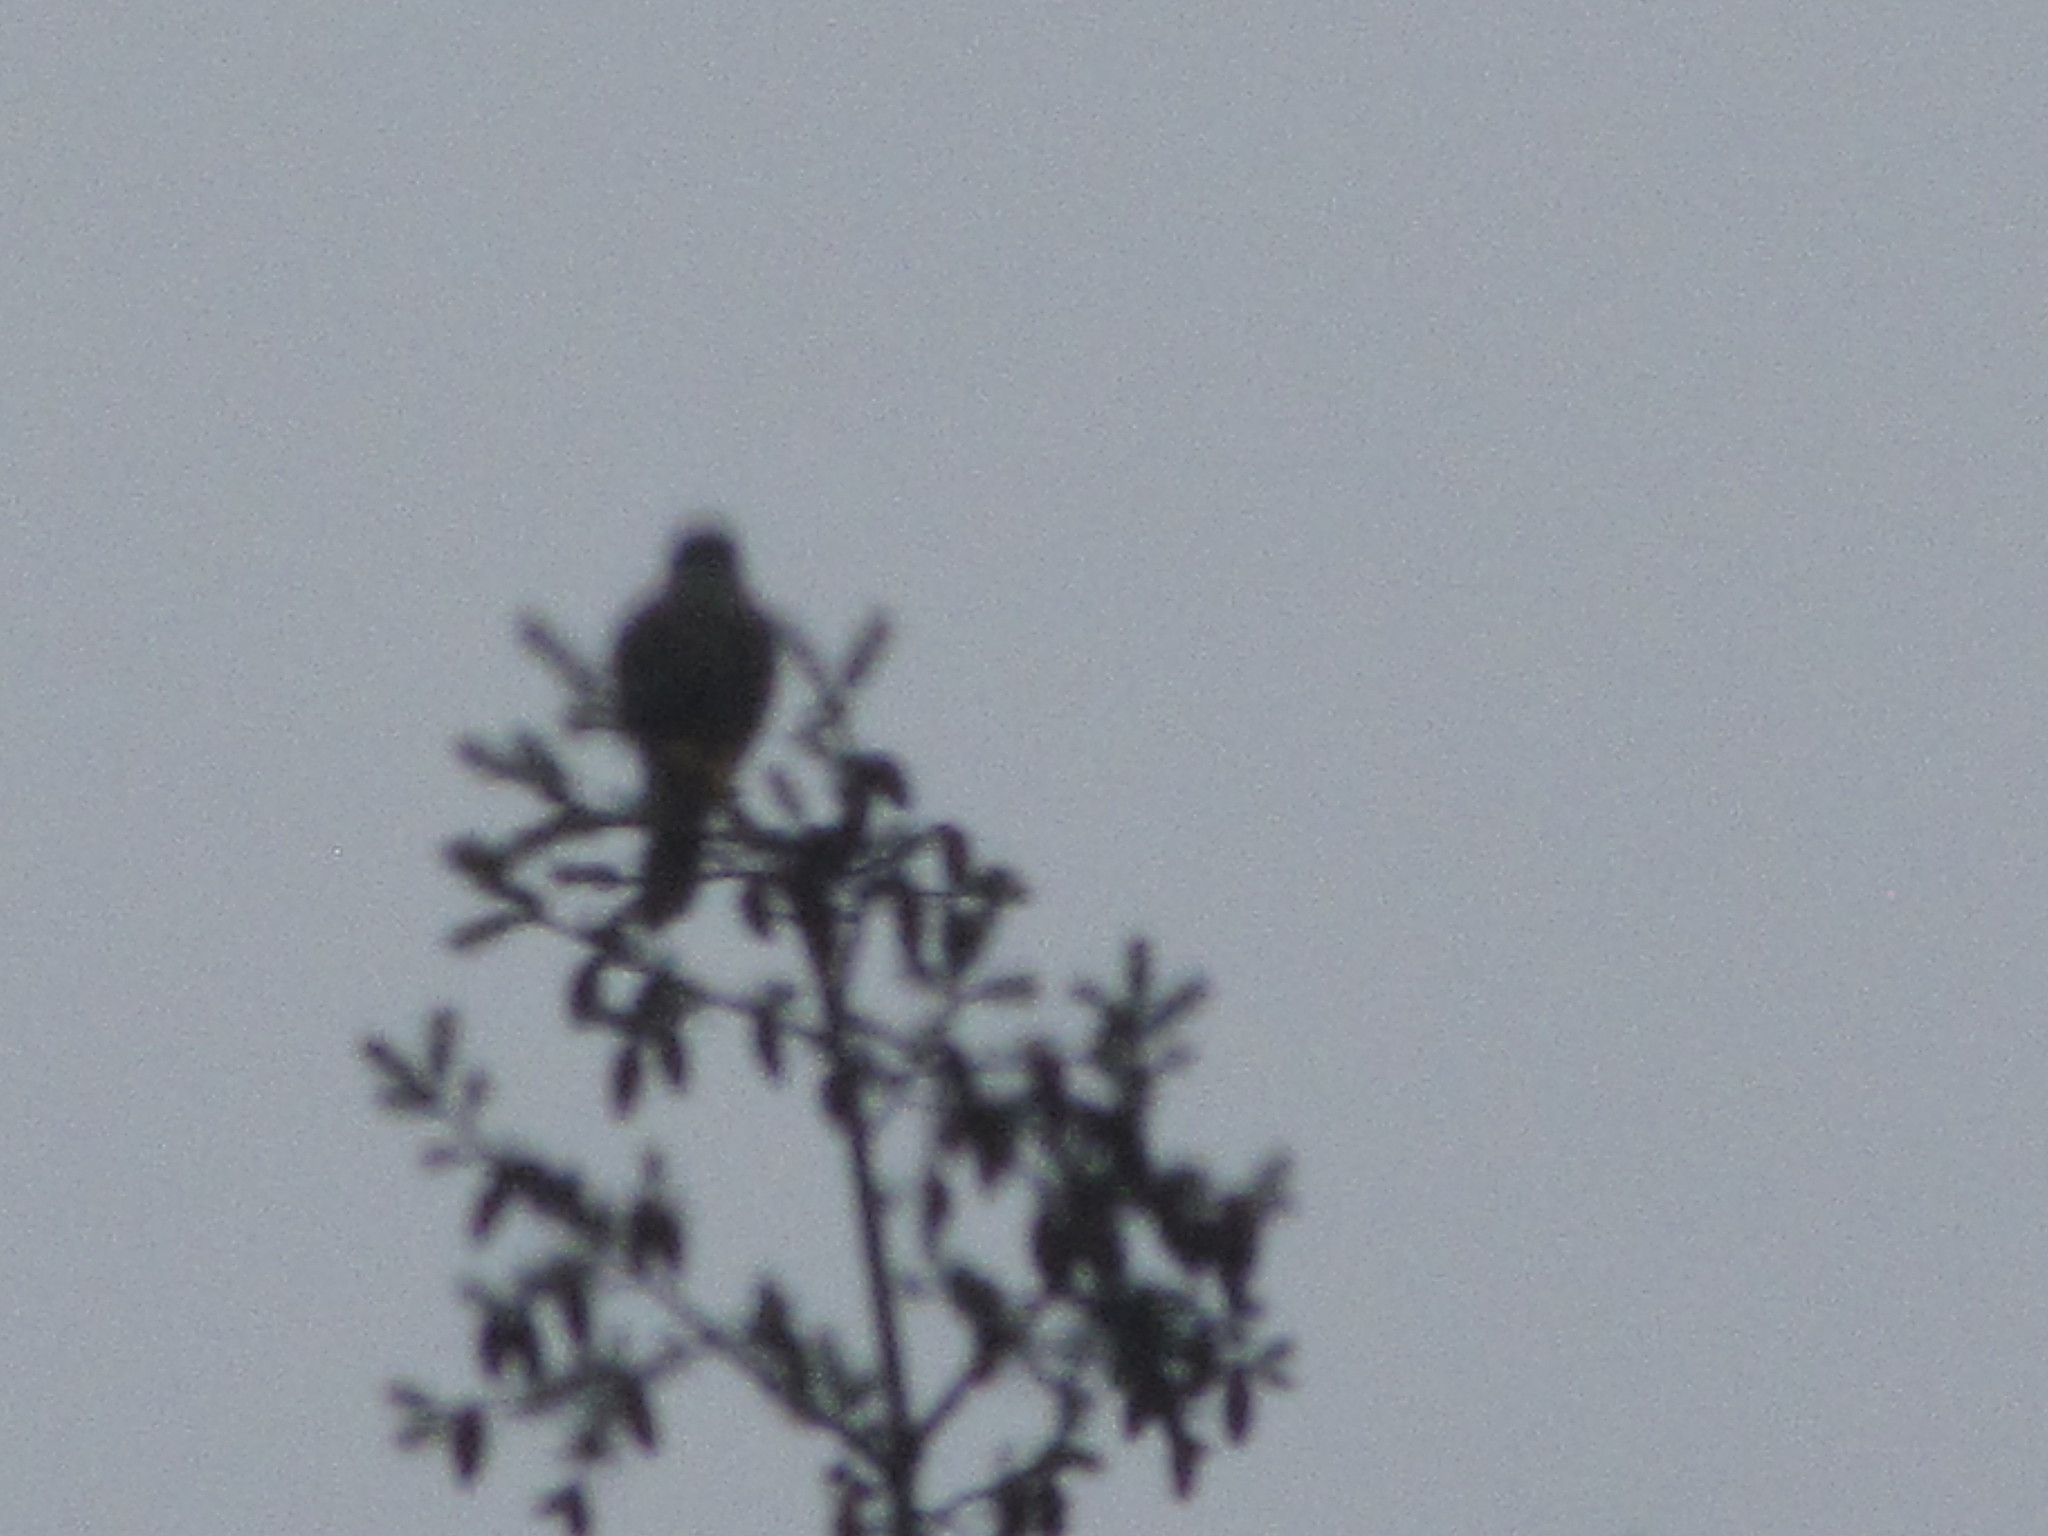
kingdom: Animalia
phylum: Chordata
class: Aves
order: Falconiformes
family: Falconidae
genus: Falco
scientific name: Falco columbarius
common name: Merlin
